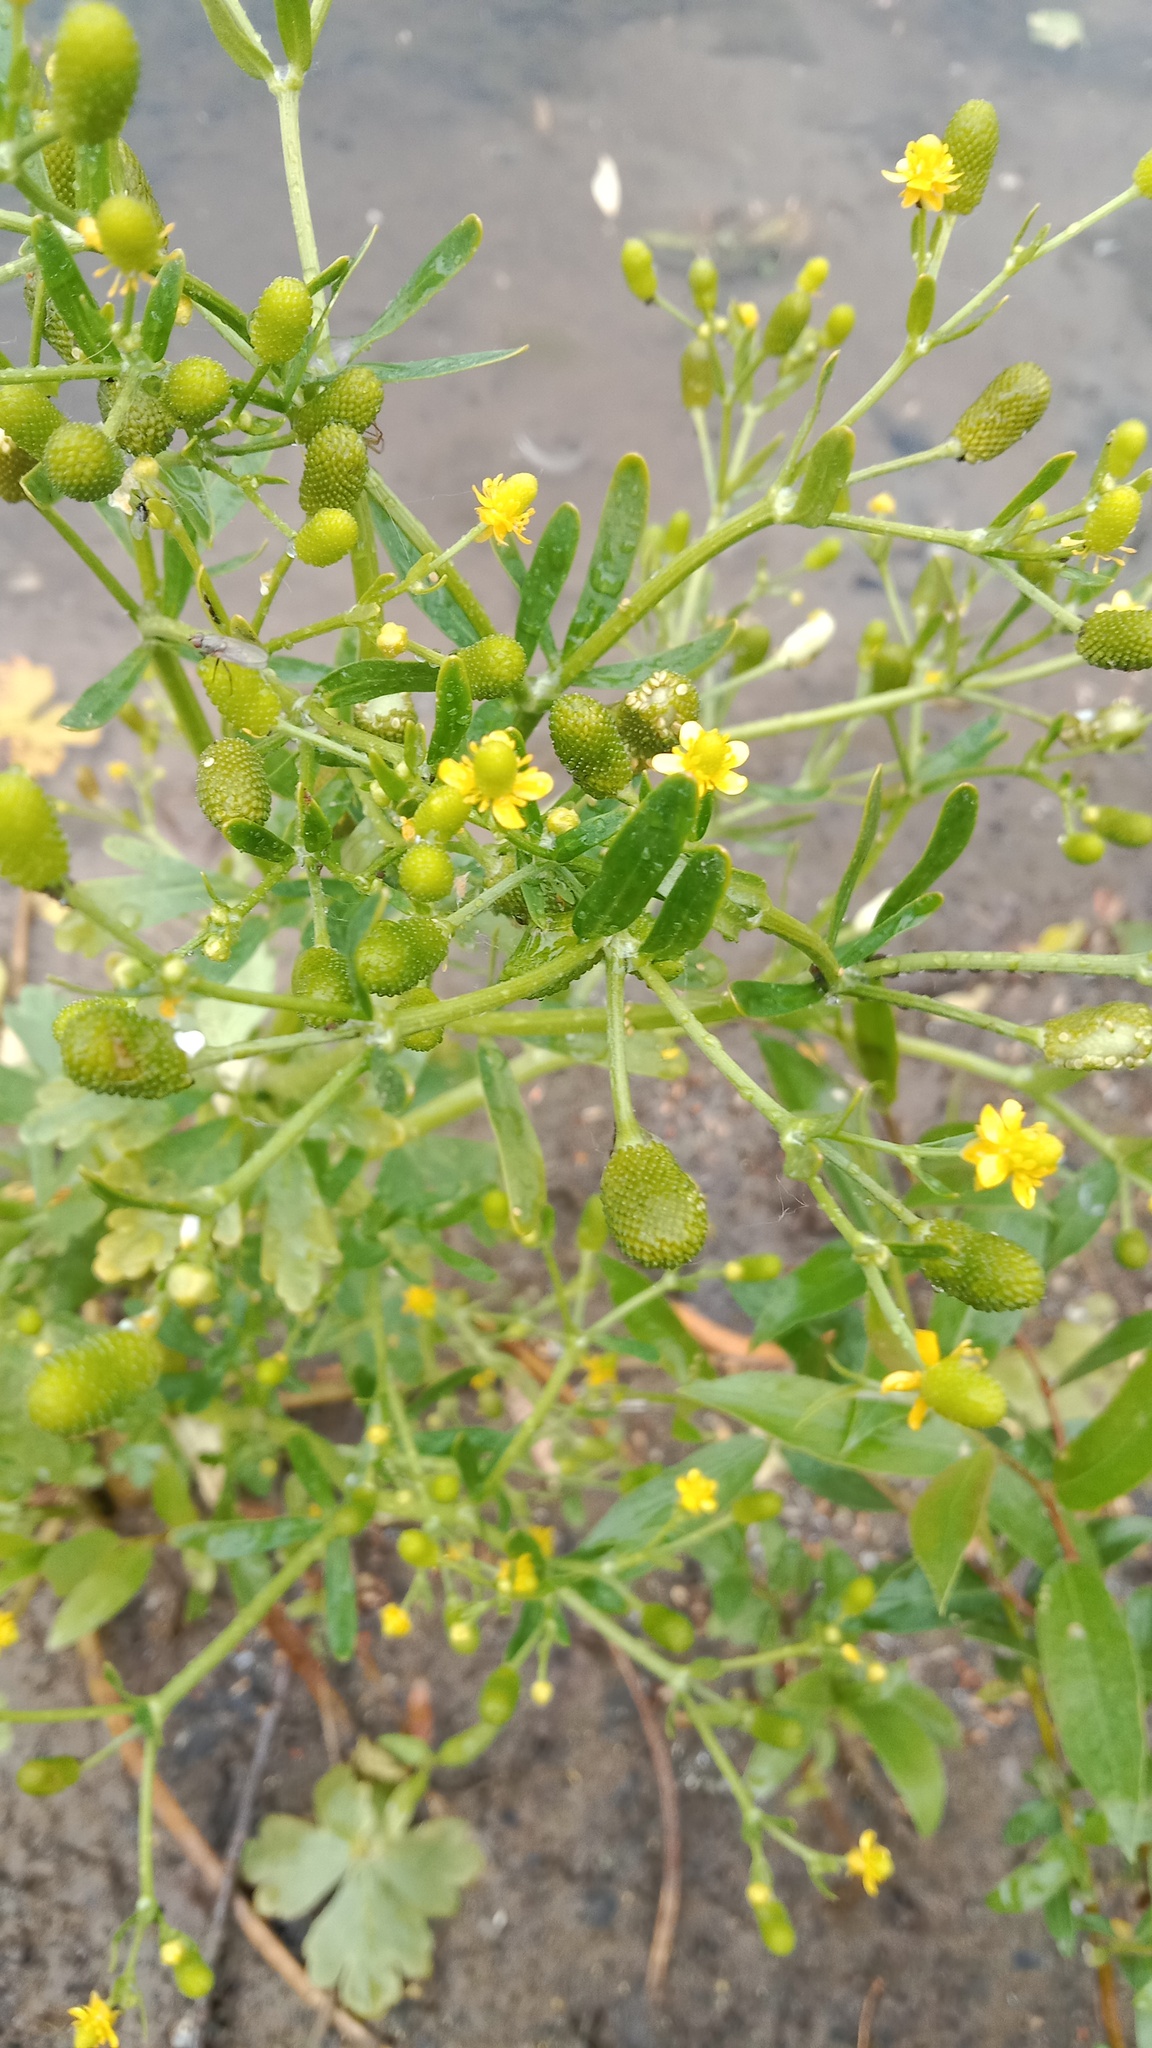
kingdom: Plantae
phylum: Tracheophyta
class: Magnoliopsida
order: Ranunculales
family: Ranunculaceae
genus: Ranunculus
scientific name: Ranunculus sceleratus
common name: Celery-leaved buttercup
